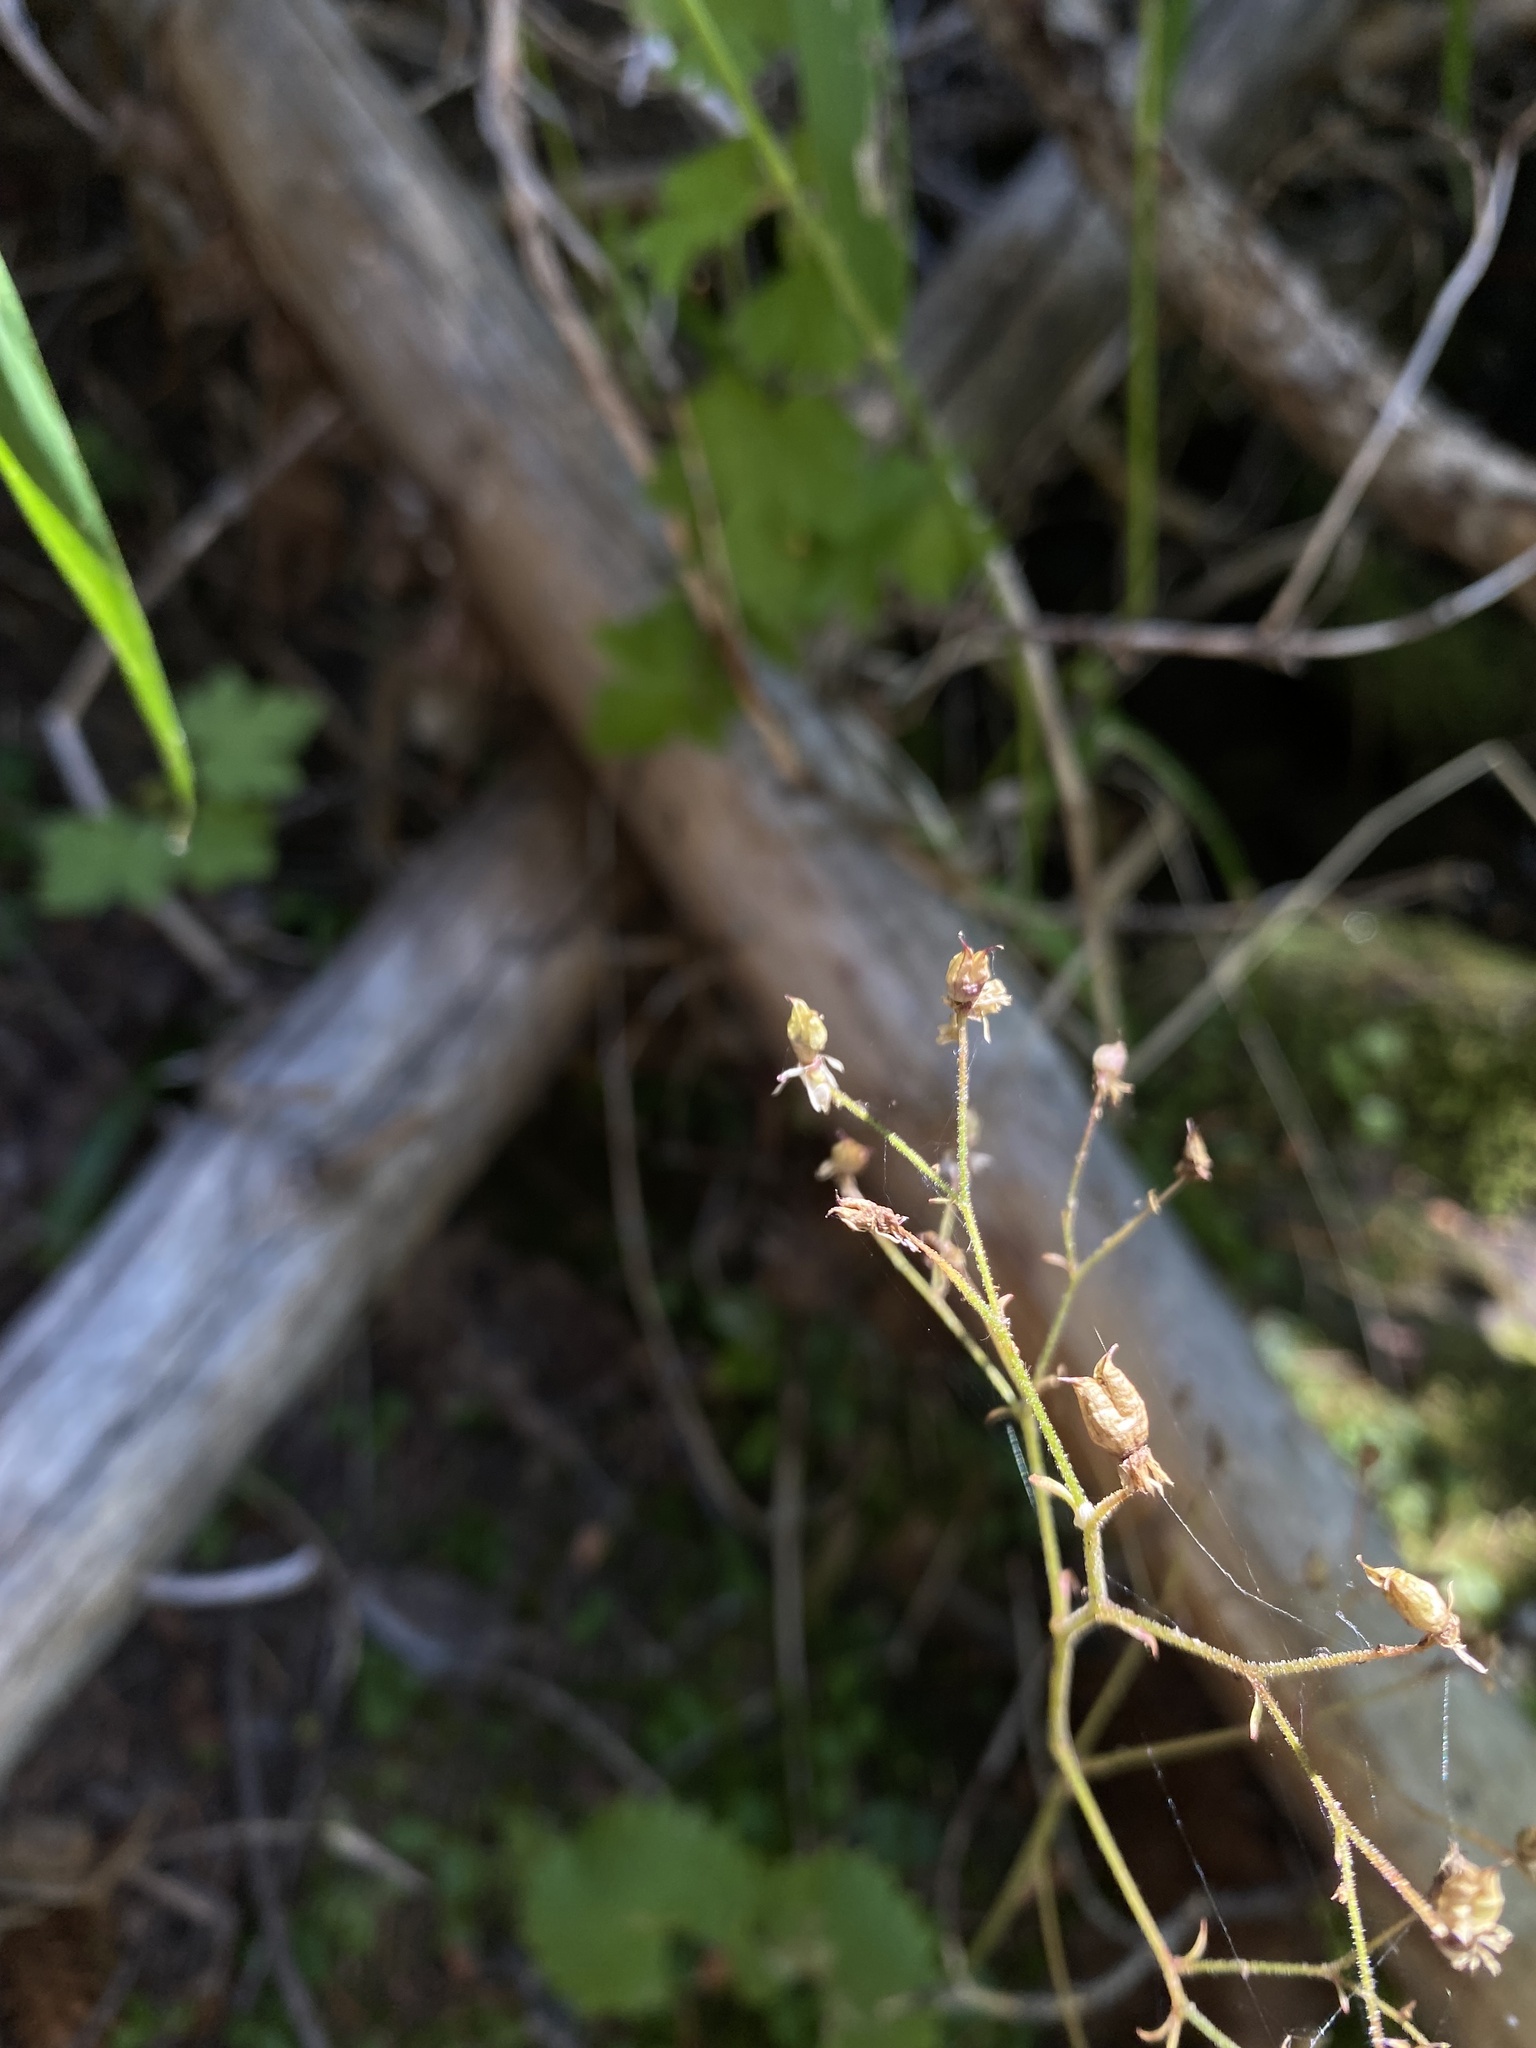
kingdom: Plantae
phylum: Tracheophyta
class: Magnoliopsida
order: Saxifragales
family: Saxifragaceae
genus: Micranthes
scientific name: Micranthes odontoloma
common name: Brook saxifrage
